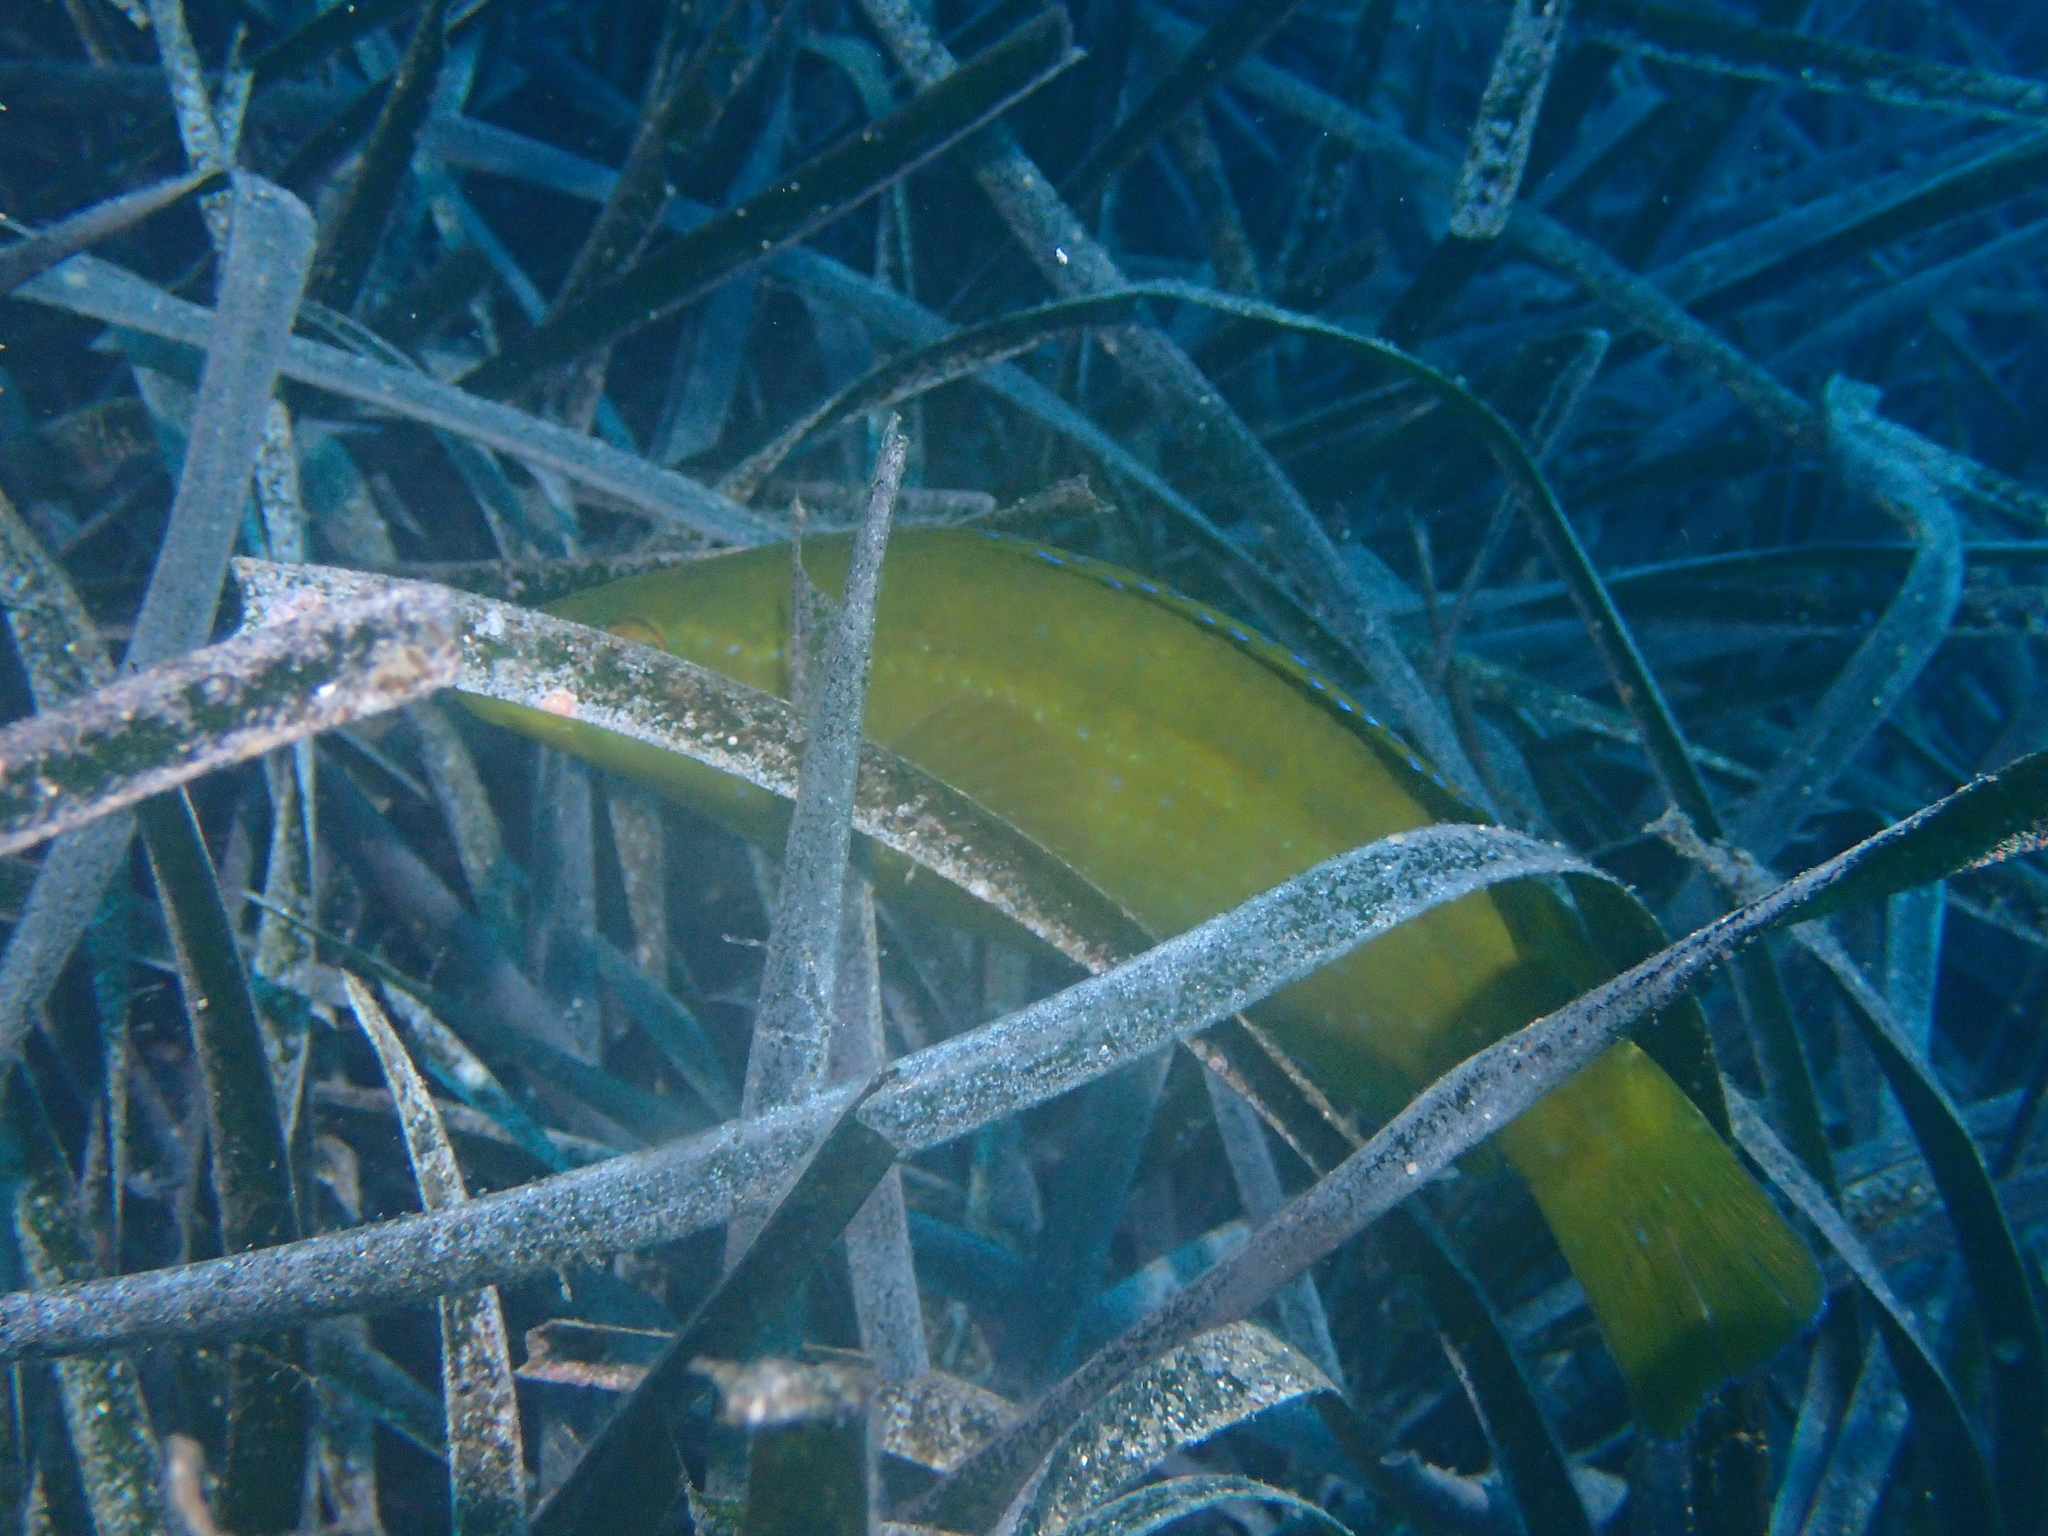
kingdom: Animalia
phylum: Chordata
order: Perciformes
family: Labridae
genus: Labrus
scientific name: Labrus merula
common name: Brown wrasse
